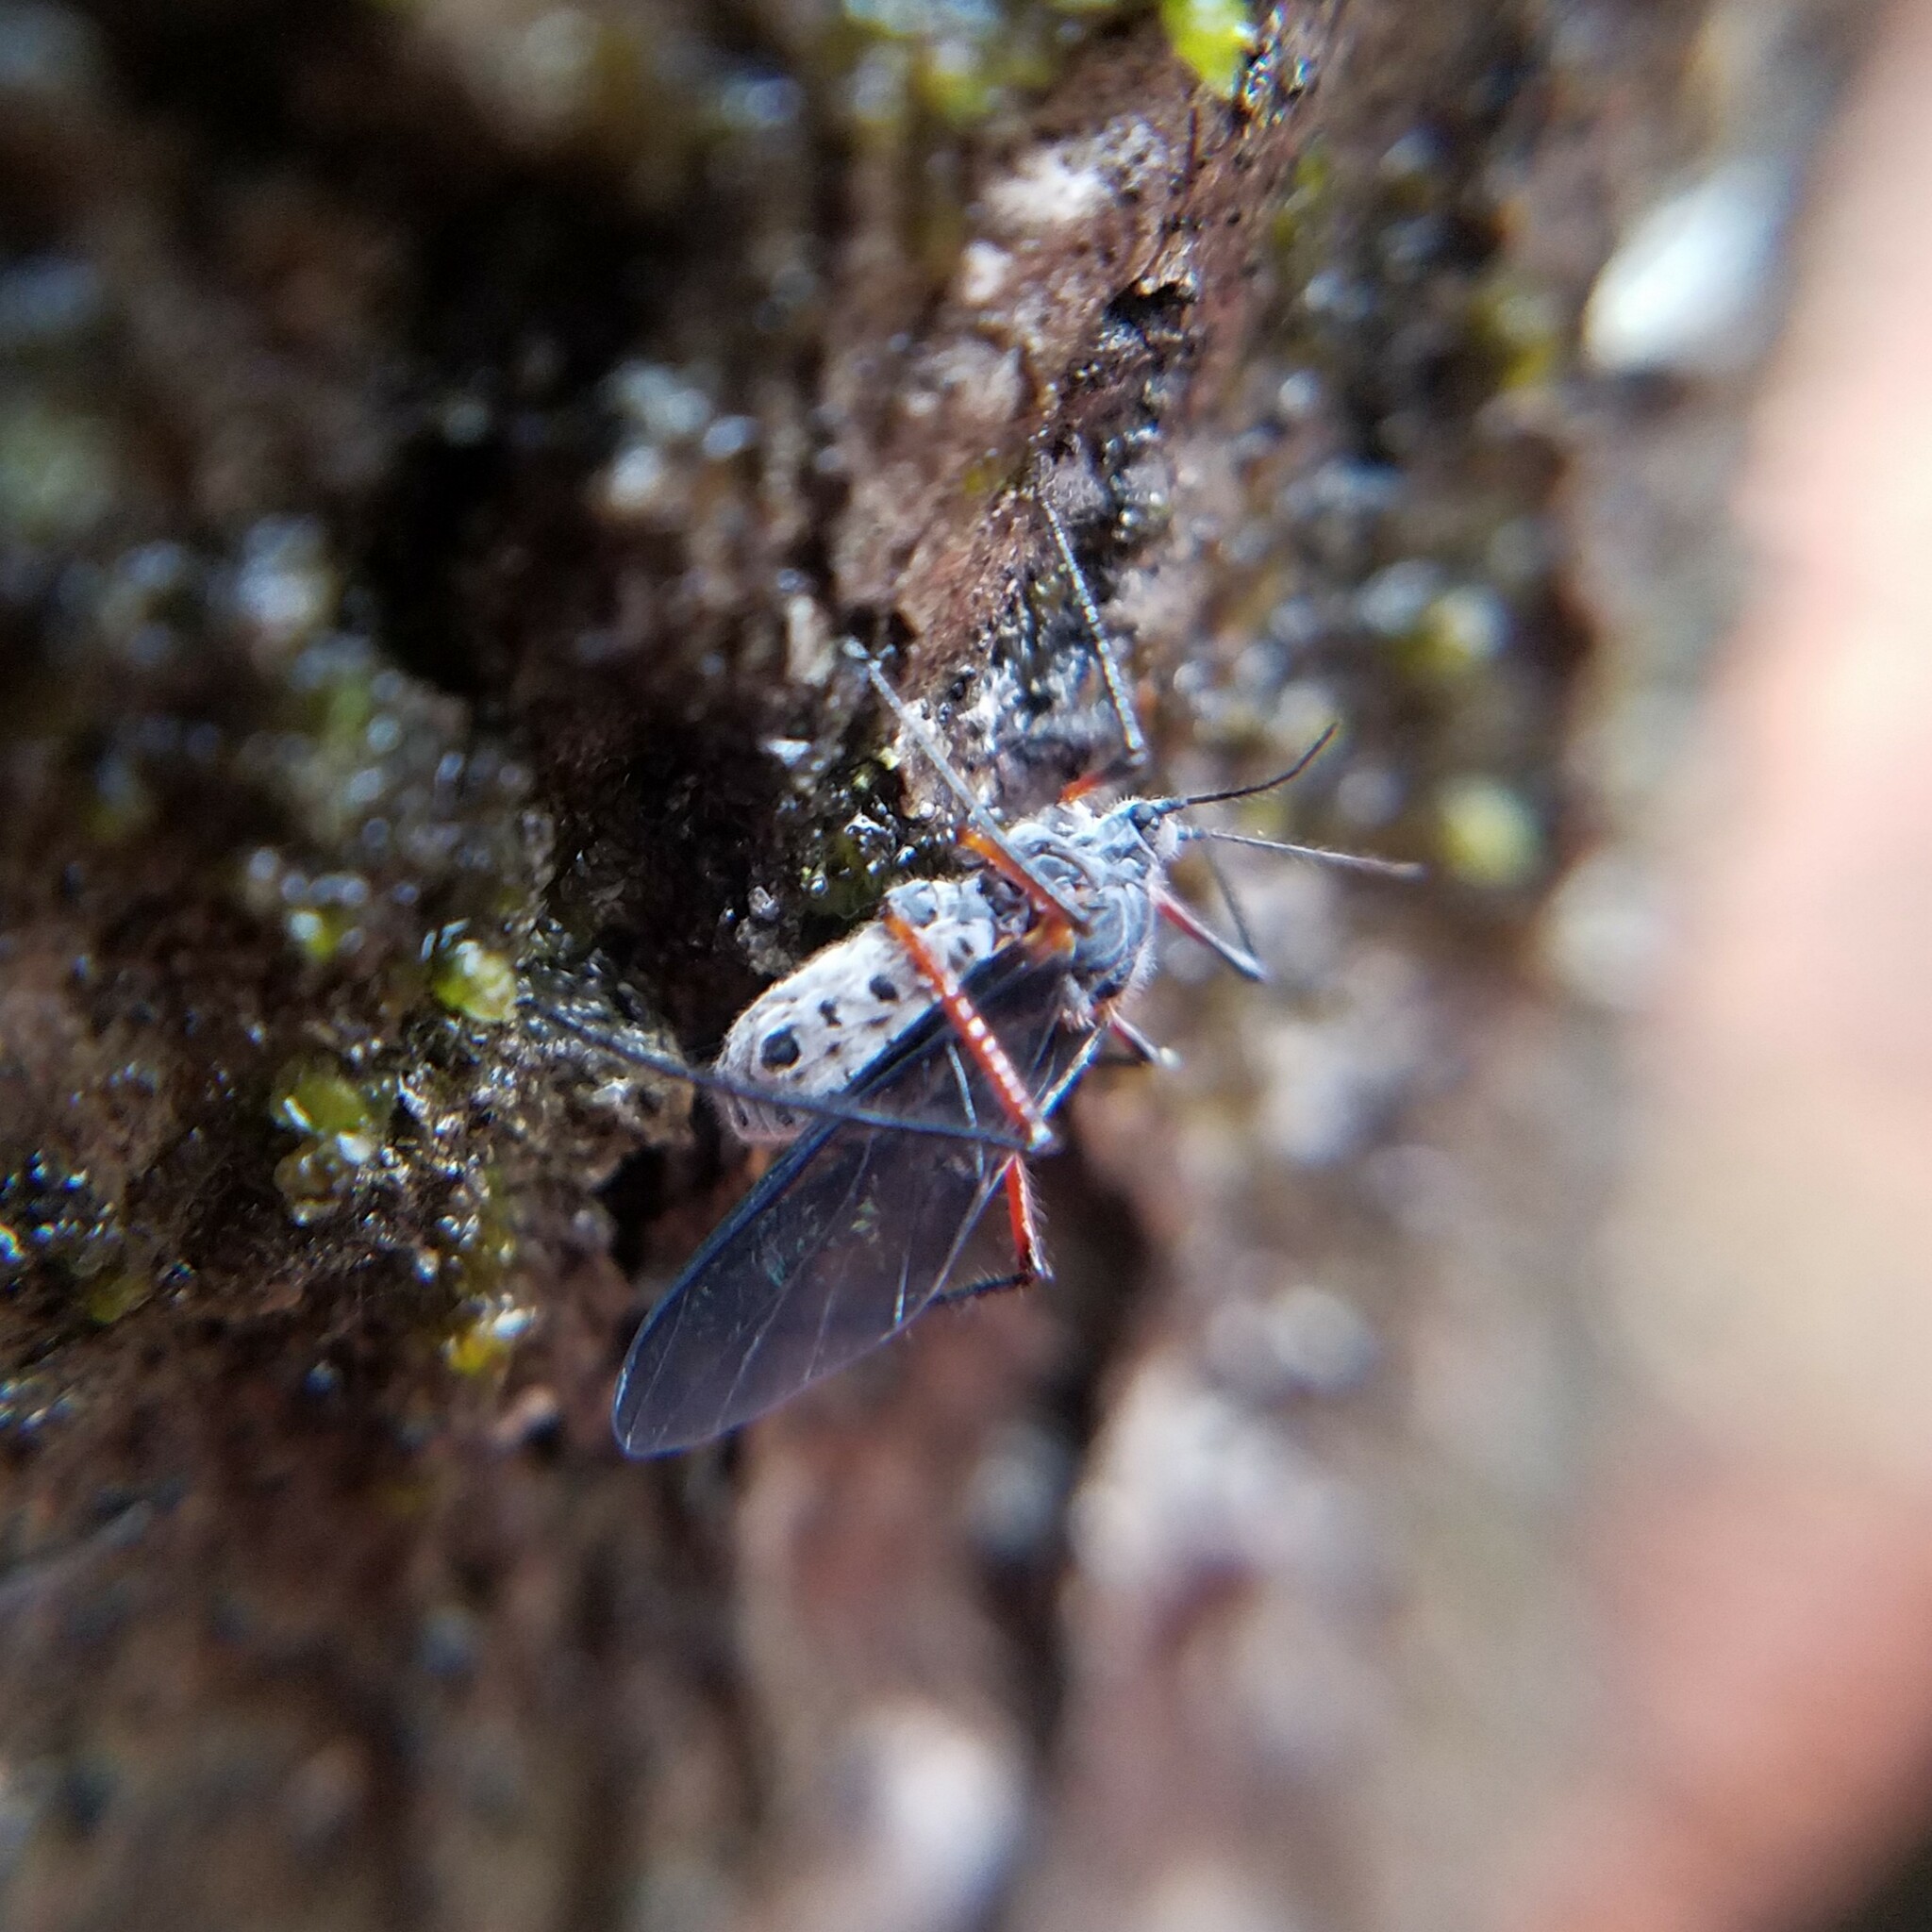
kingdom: Animalia
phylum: Arthropoda
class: Insecta
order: Hemiptera
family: Aphididae
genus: Longistigma
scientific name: Longistigma caryae
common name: Giant bark aphid
